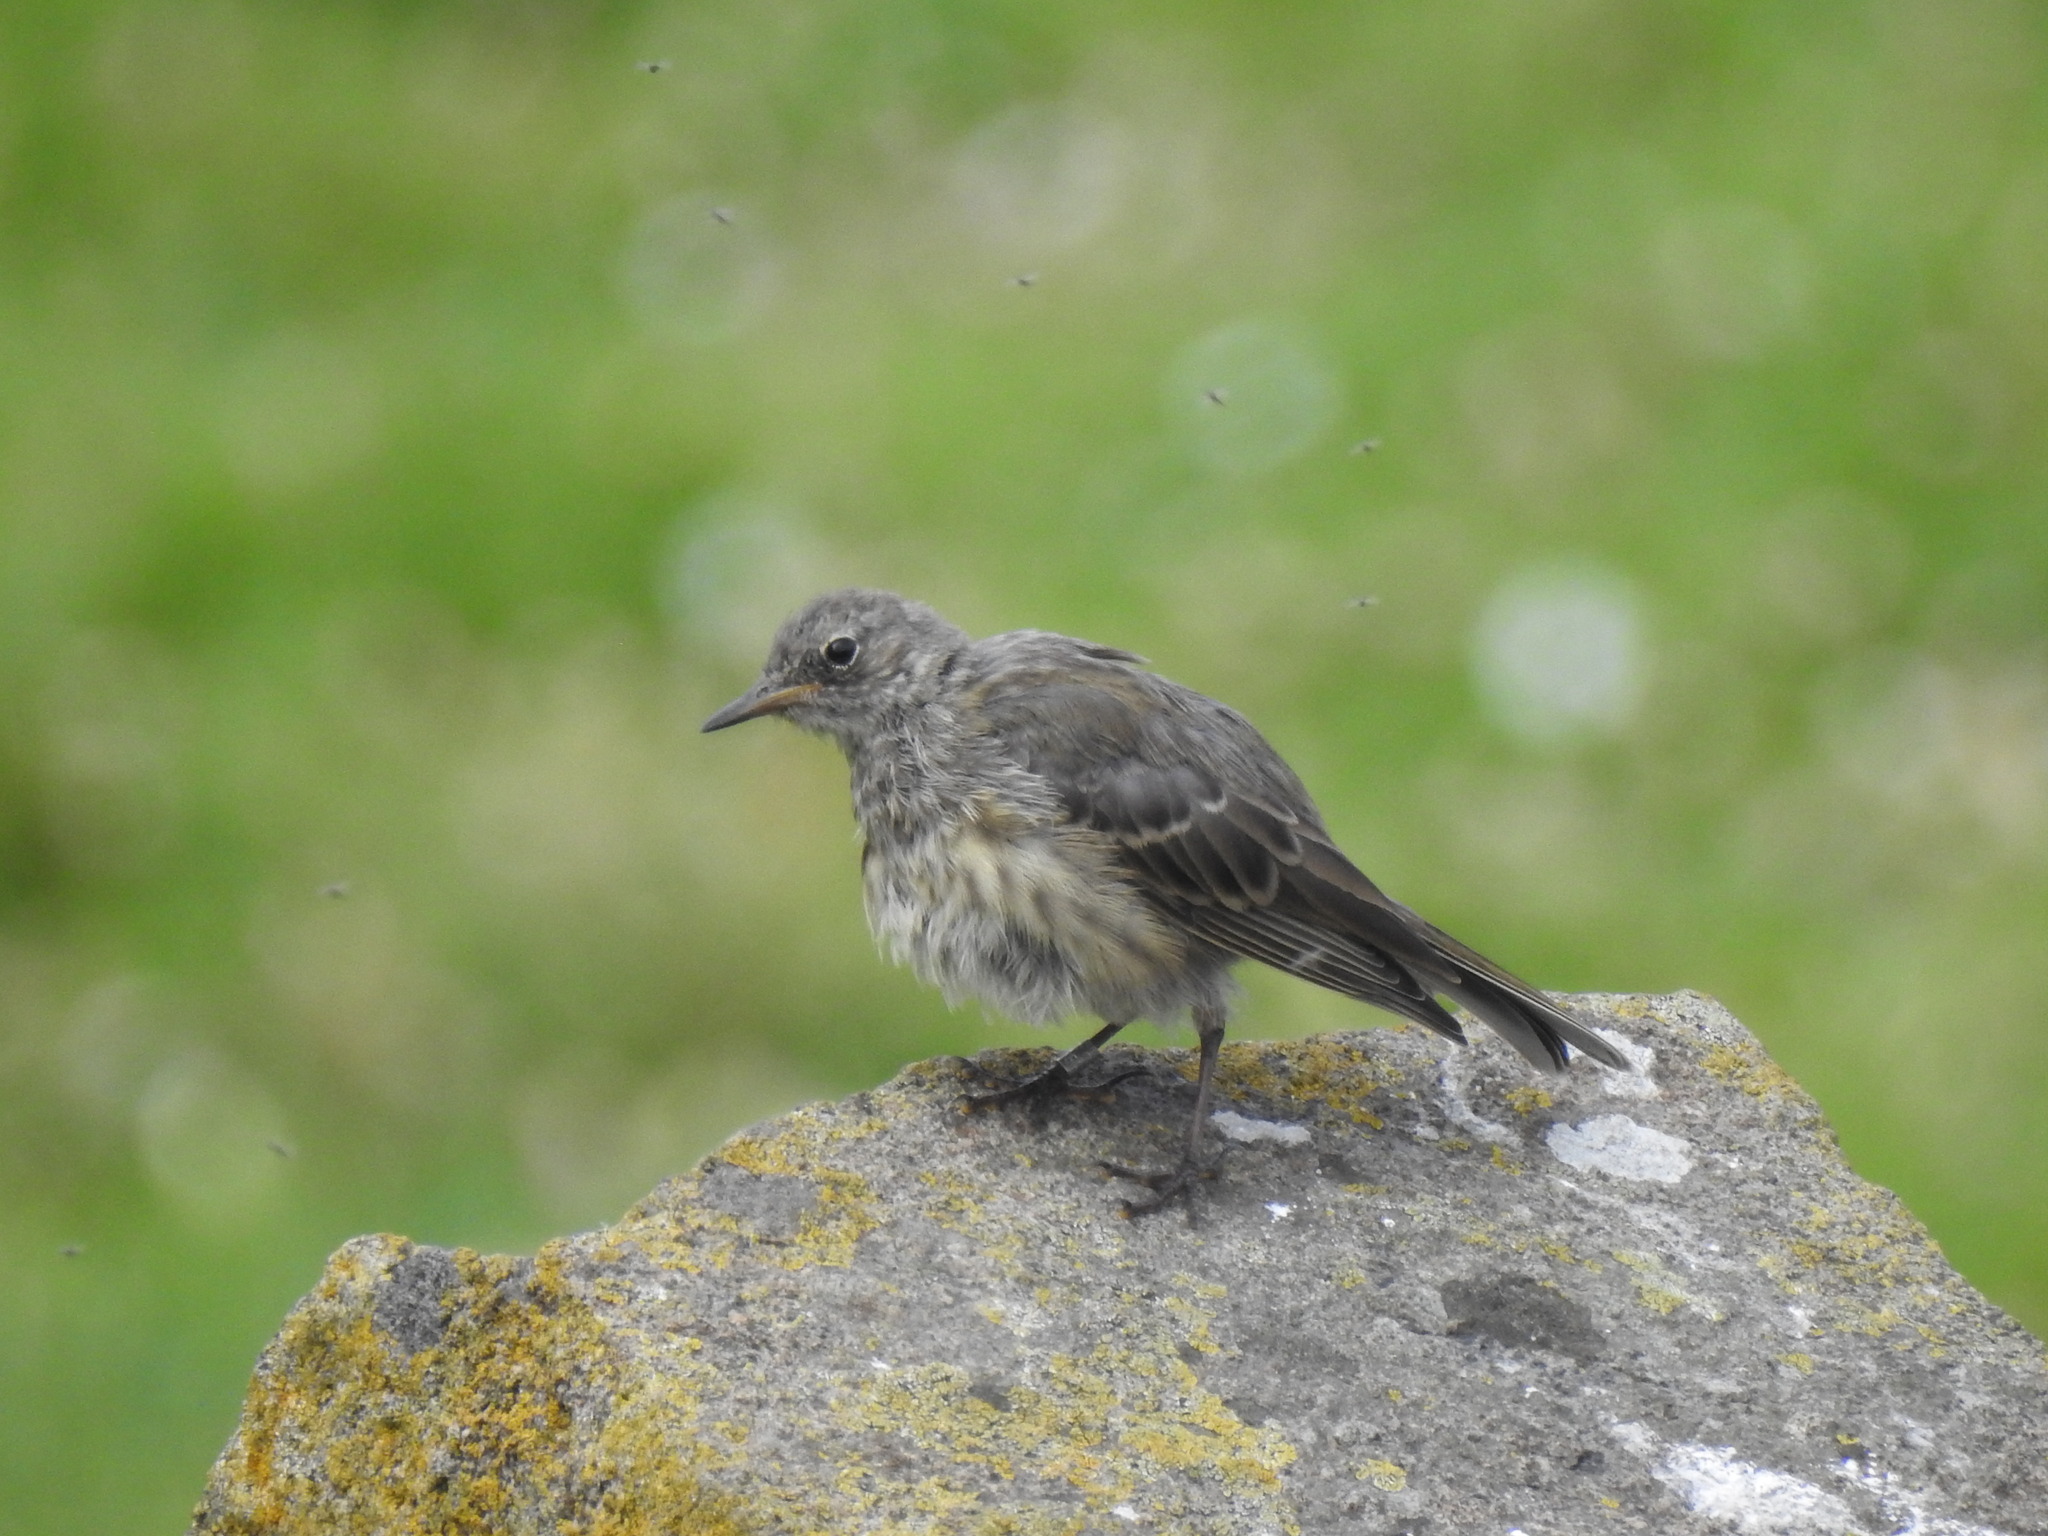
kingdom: Animalia
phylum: Chordata
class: Aves
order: Passeriformes
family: Motacillidae
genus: Anthus
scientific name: Anthus petrosus
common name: Eurasian rock pipit
